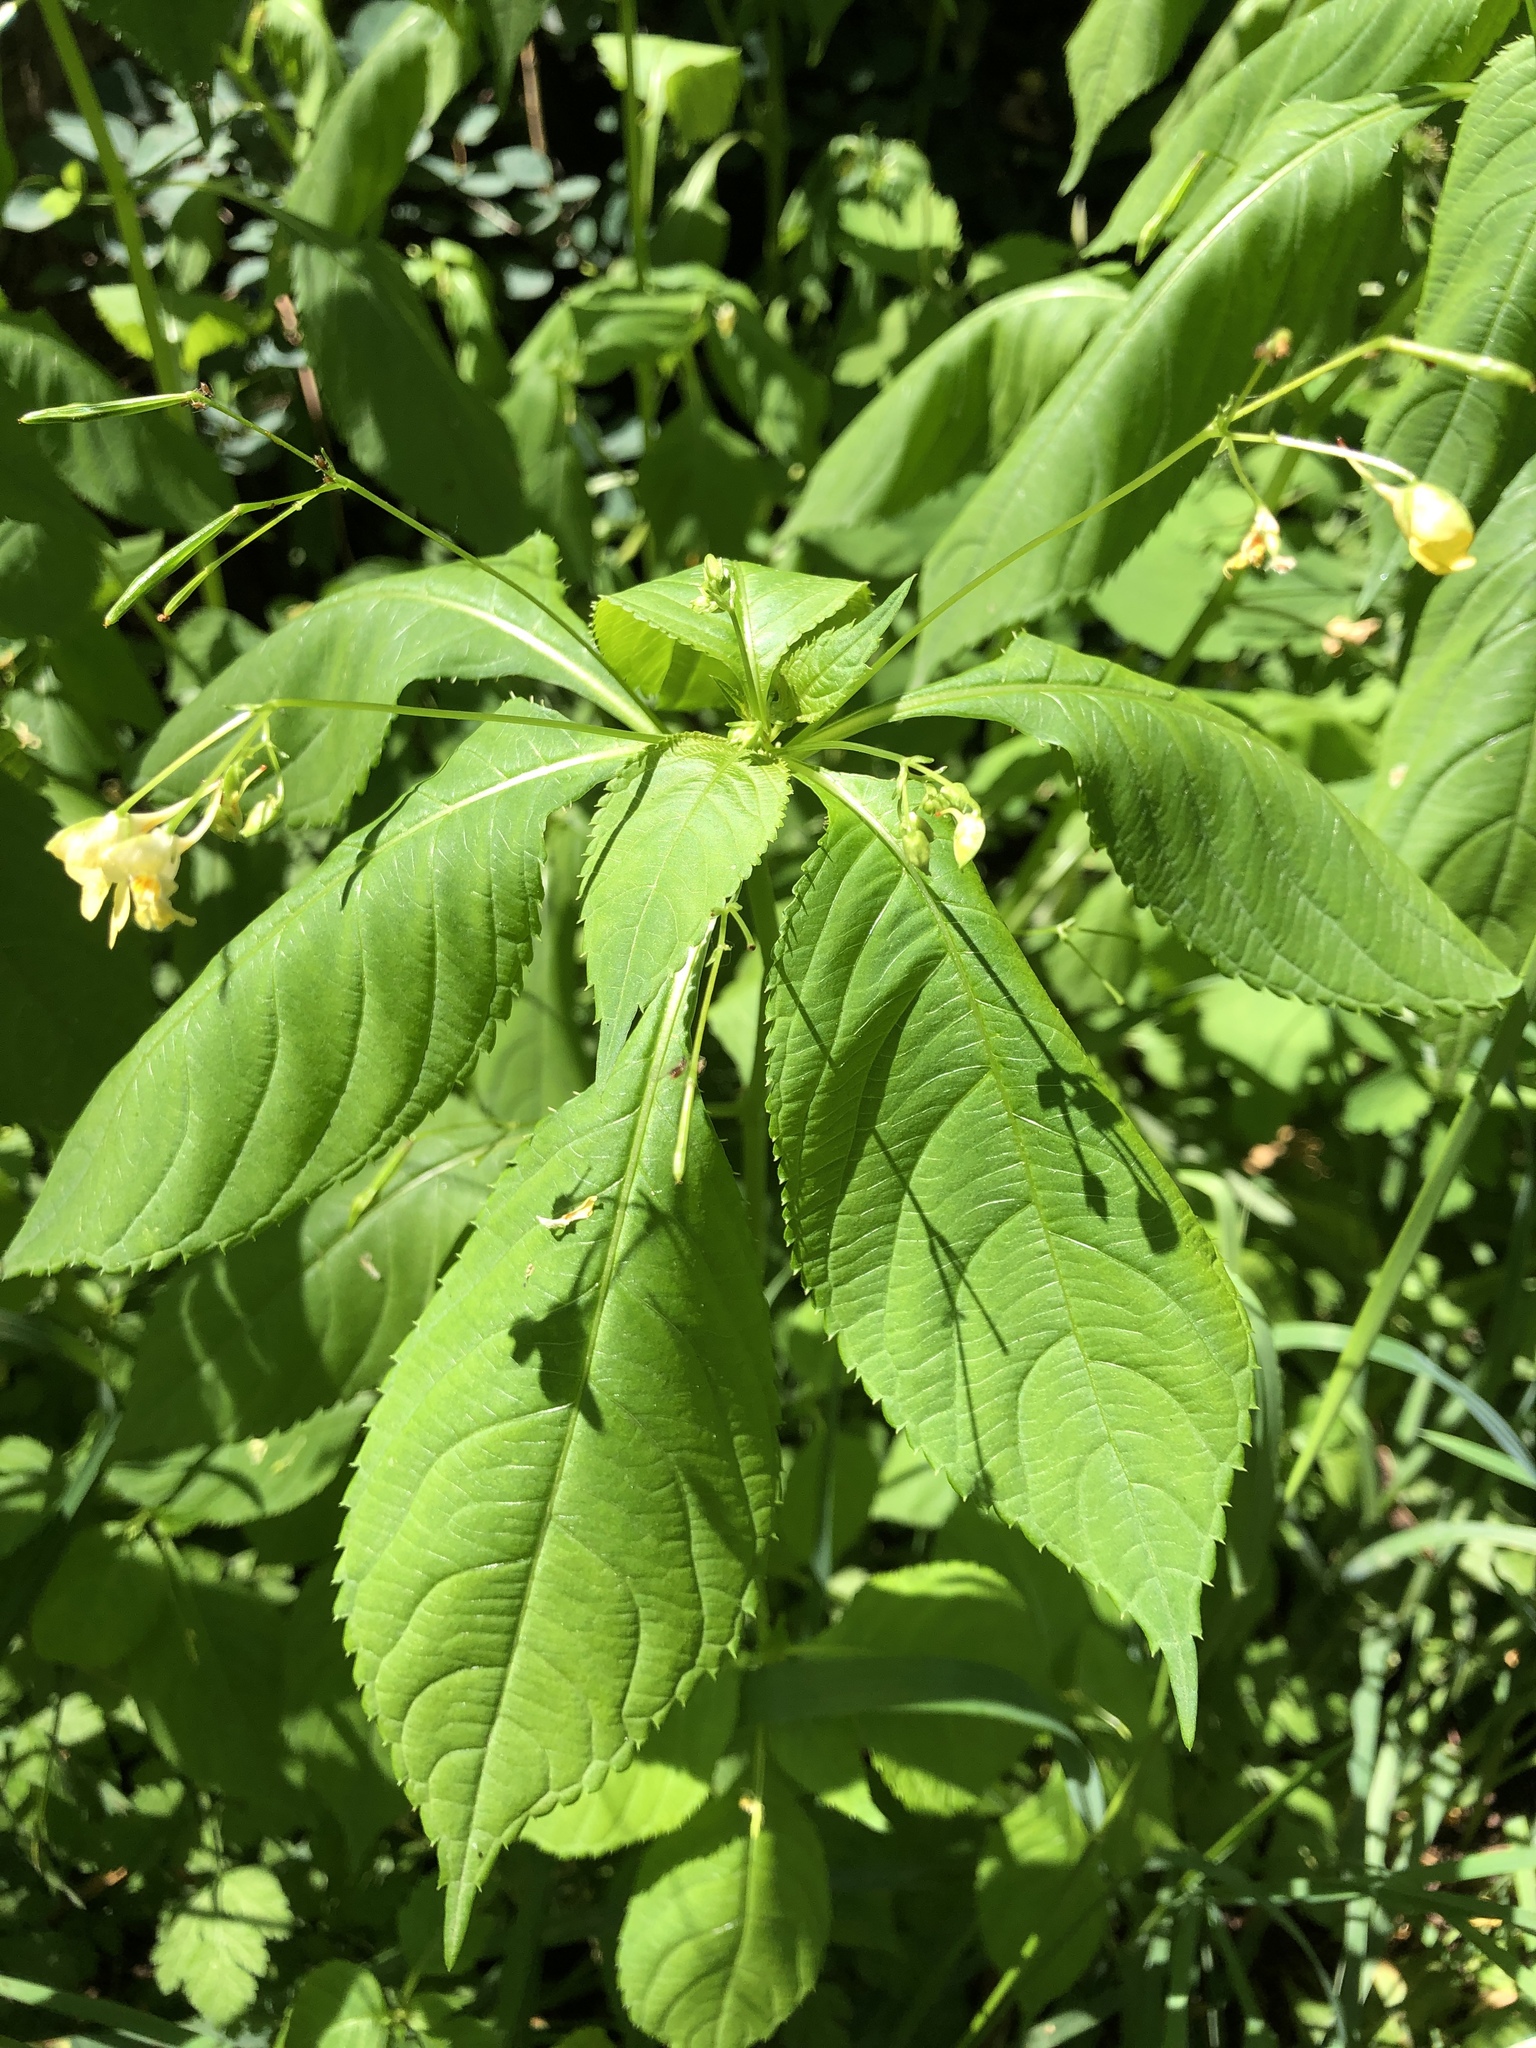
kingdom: Plantae
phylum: Tracheophyta
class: Magnoliopsida
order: Ericales
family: Balsaminaceae
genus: Impatiens
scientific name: Impatiens parviflora
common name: Small balsam
